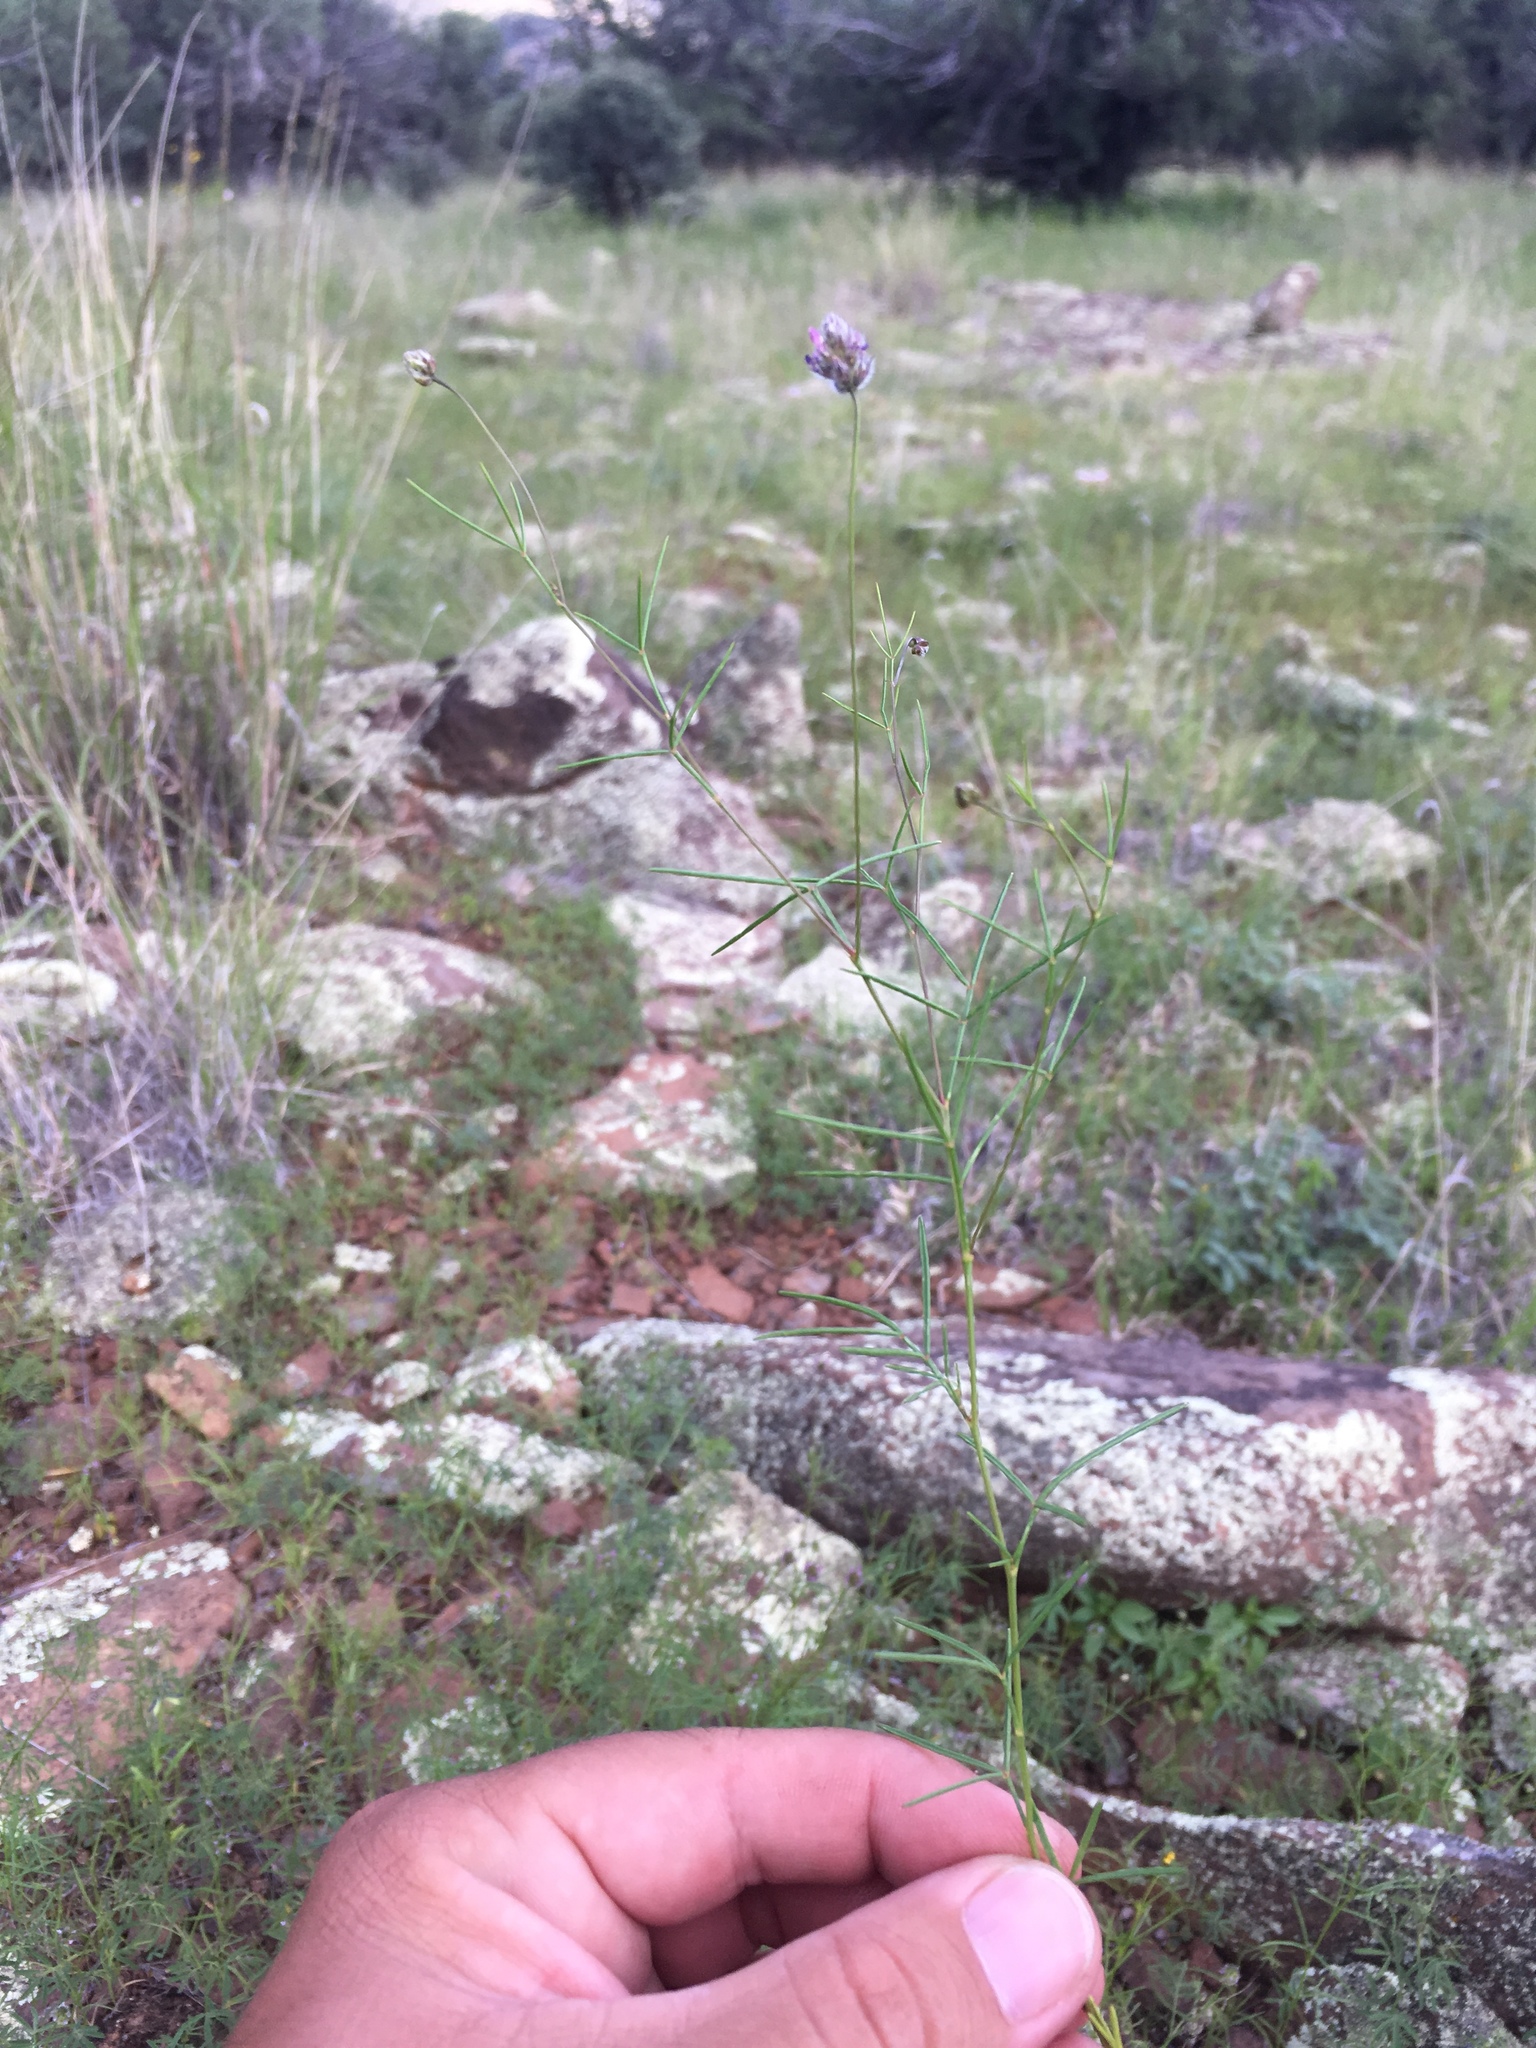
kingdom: Plantae
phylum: Tracheophyta
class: Magnoliopsida
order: Fabales
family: Fabaceae
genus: Dalea
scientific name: Dalea filiformis
